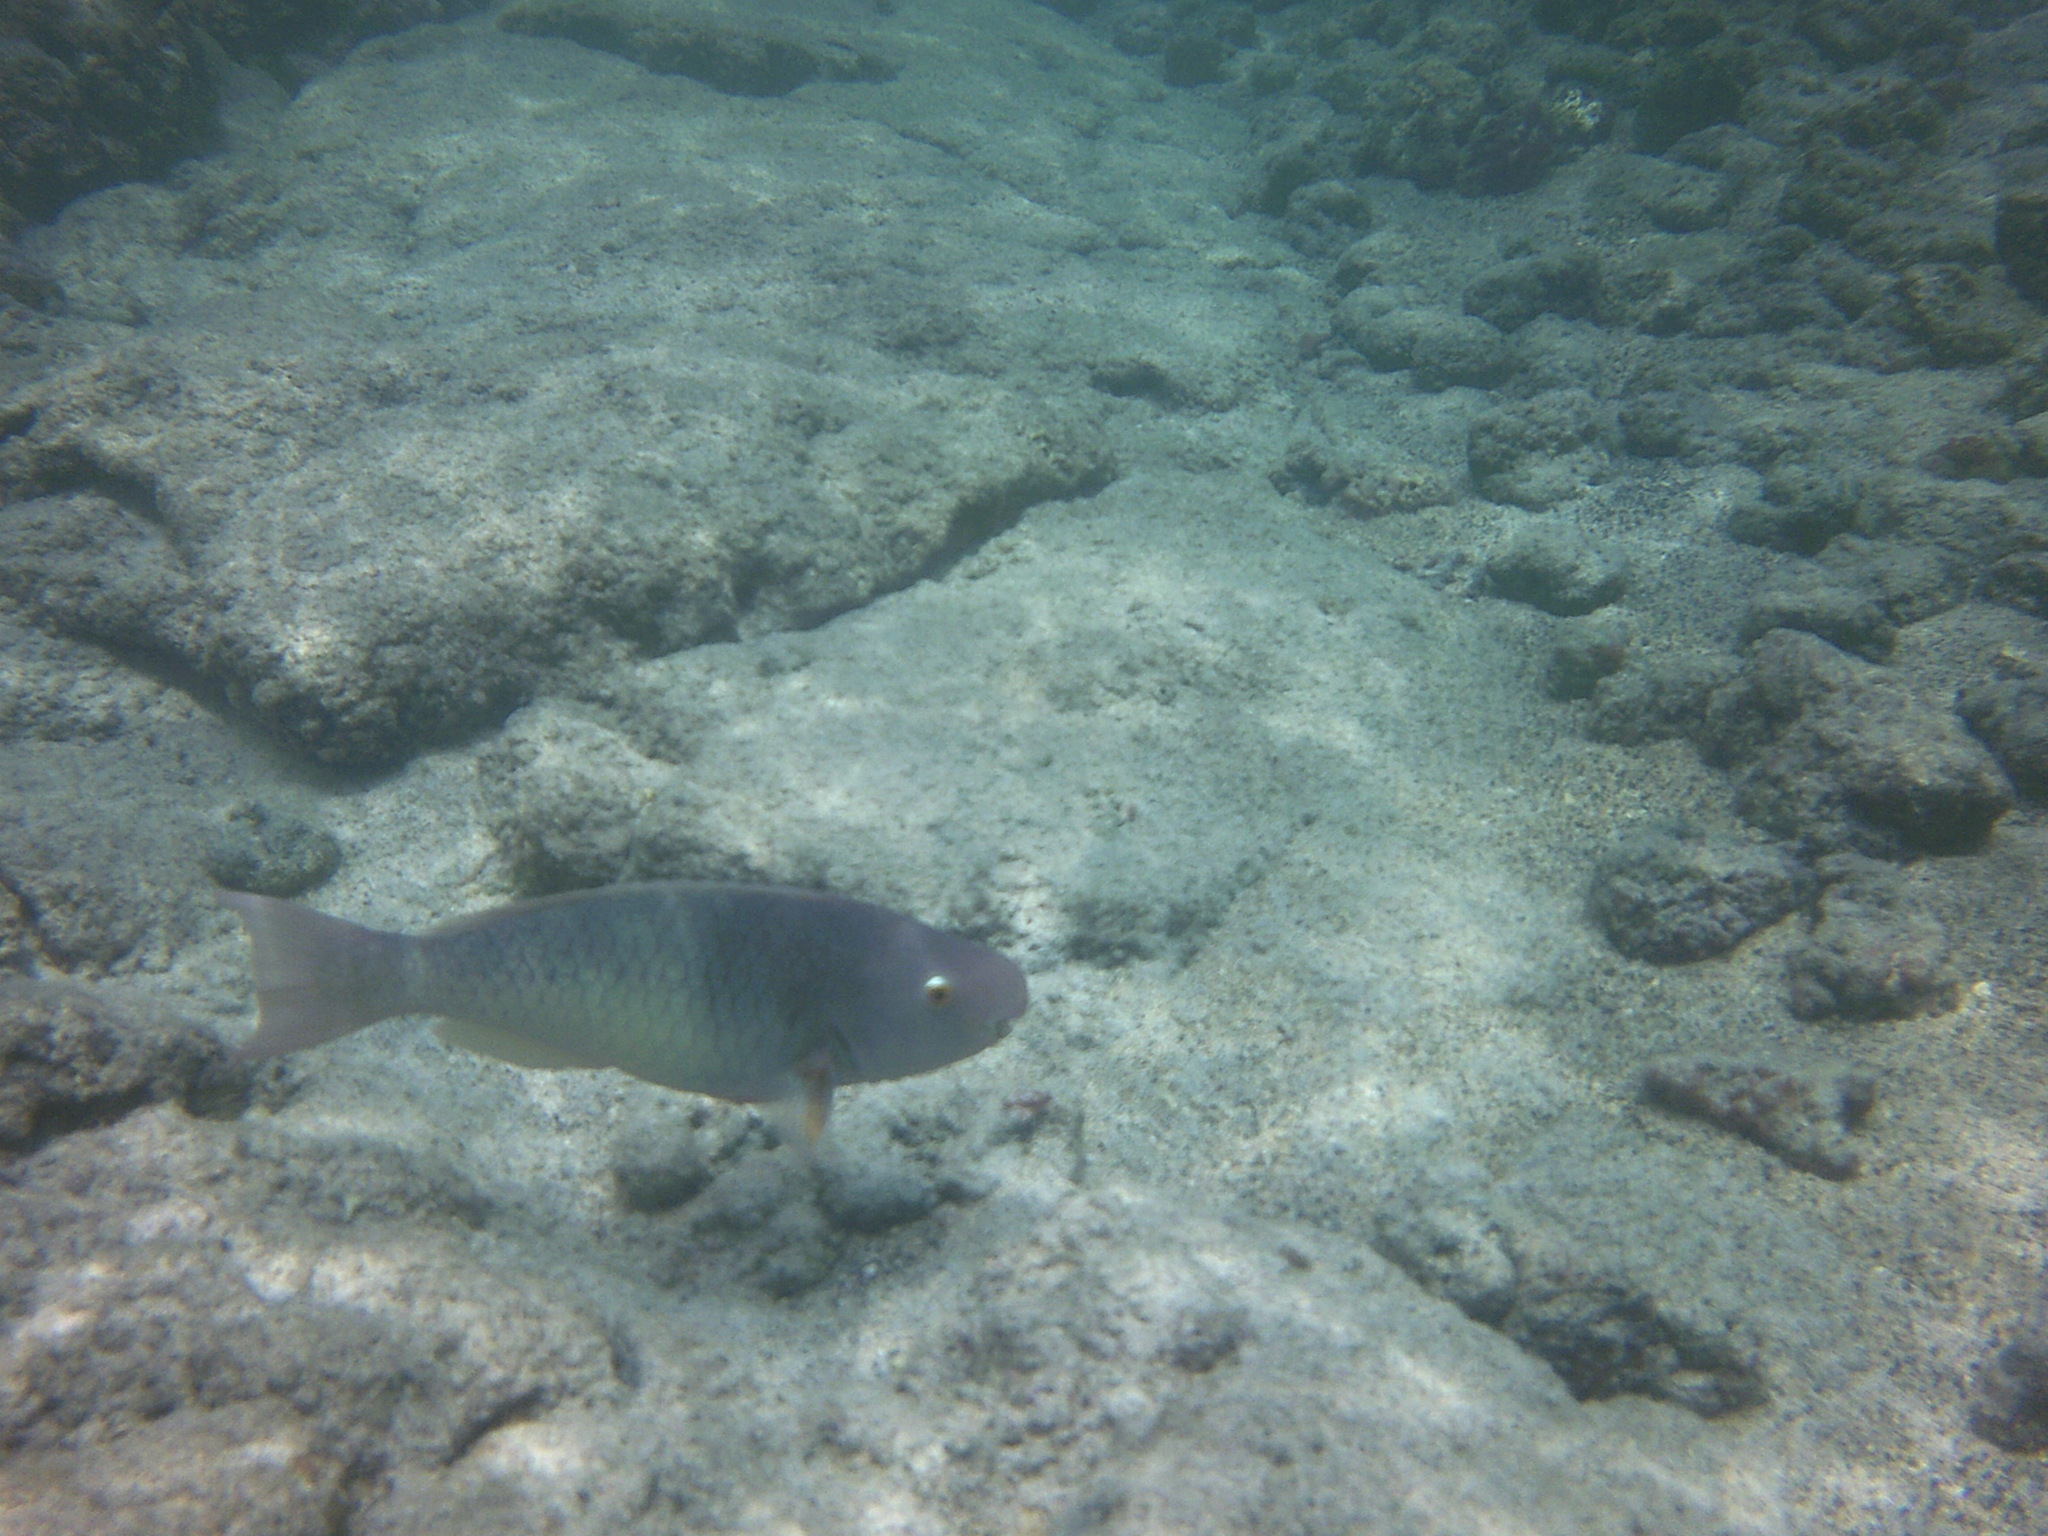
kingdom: Animalia
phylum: Chordata
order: Perciformes
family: Scaridae
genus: Scarus
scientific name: Scarus rubroviolaceus
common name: Ember parrotfish
